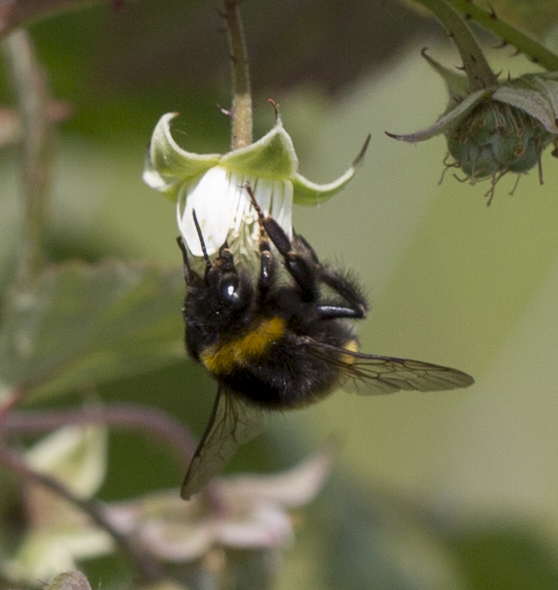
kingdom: Animalia
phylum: Arthropoda
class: Insecta
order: Hymenoptera
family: Apidae
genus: Bombus
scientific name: Bombus
